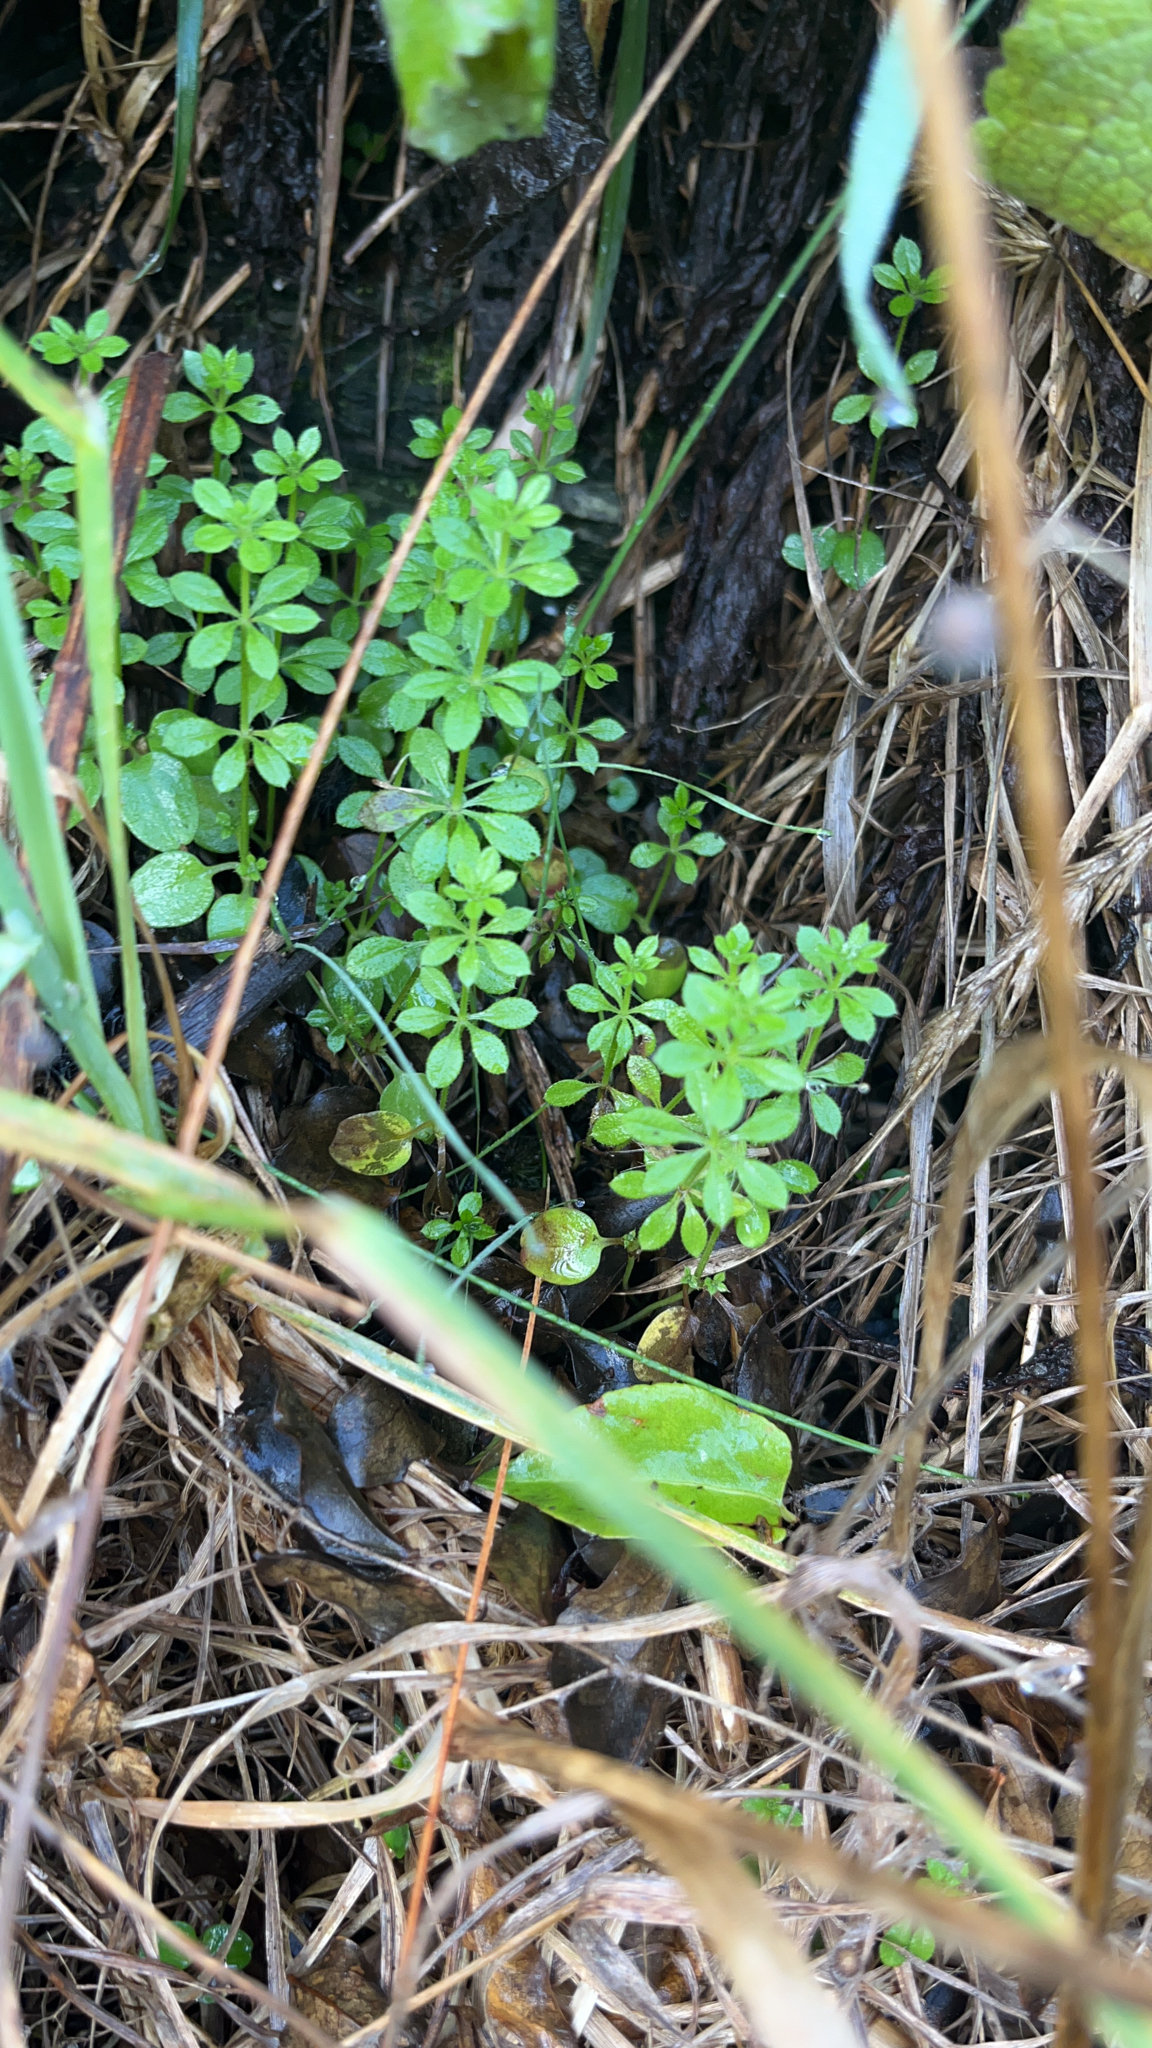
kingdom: Plantae
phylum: Tracheophyta
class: Magnoliopsida
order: Gentianales
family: Rubiaceae
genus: Galium
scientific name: Galium aparine
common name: Cleavers
